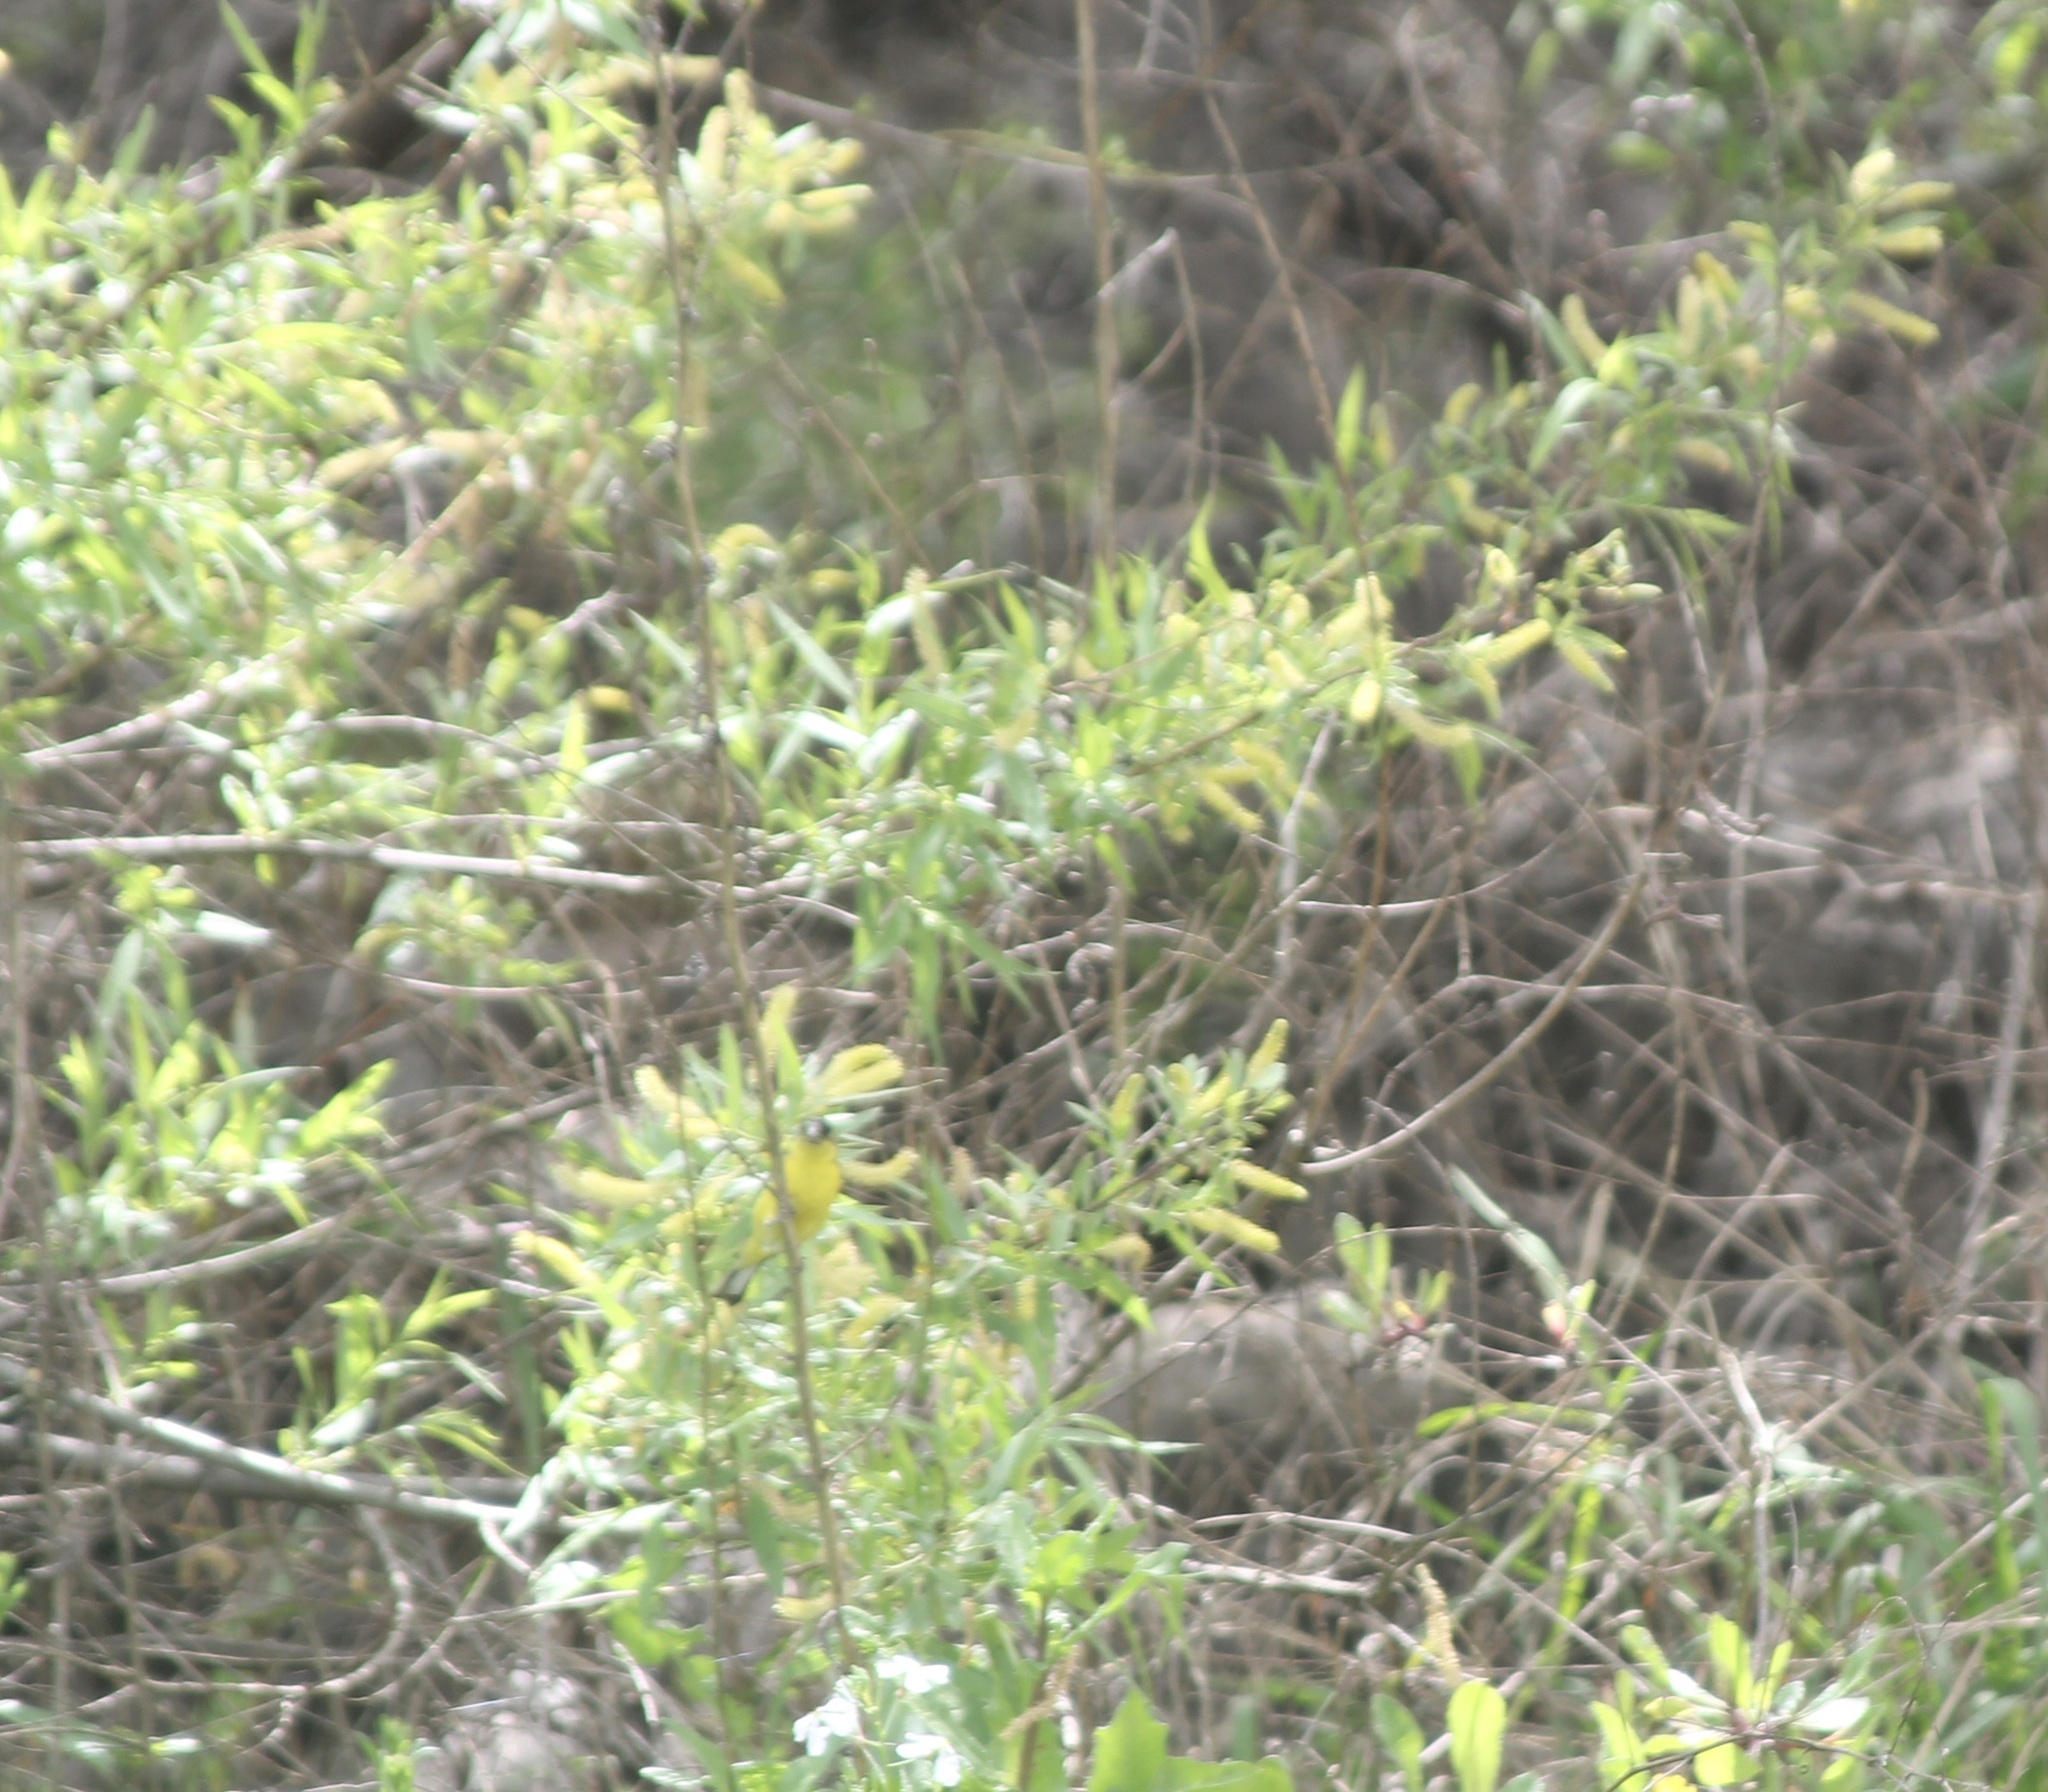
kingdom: Animalia
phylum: Chordata
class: Aves
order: Passeriformes
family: Fringillidae
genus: Spinus
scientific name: Spinus psaltria
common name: Lesser goldfinch
